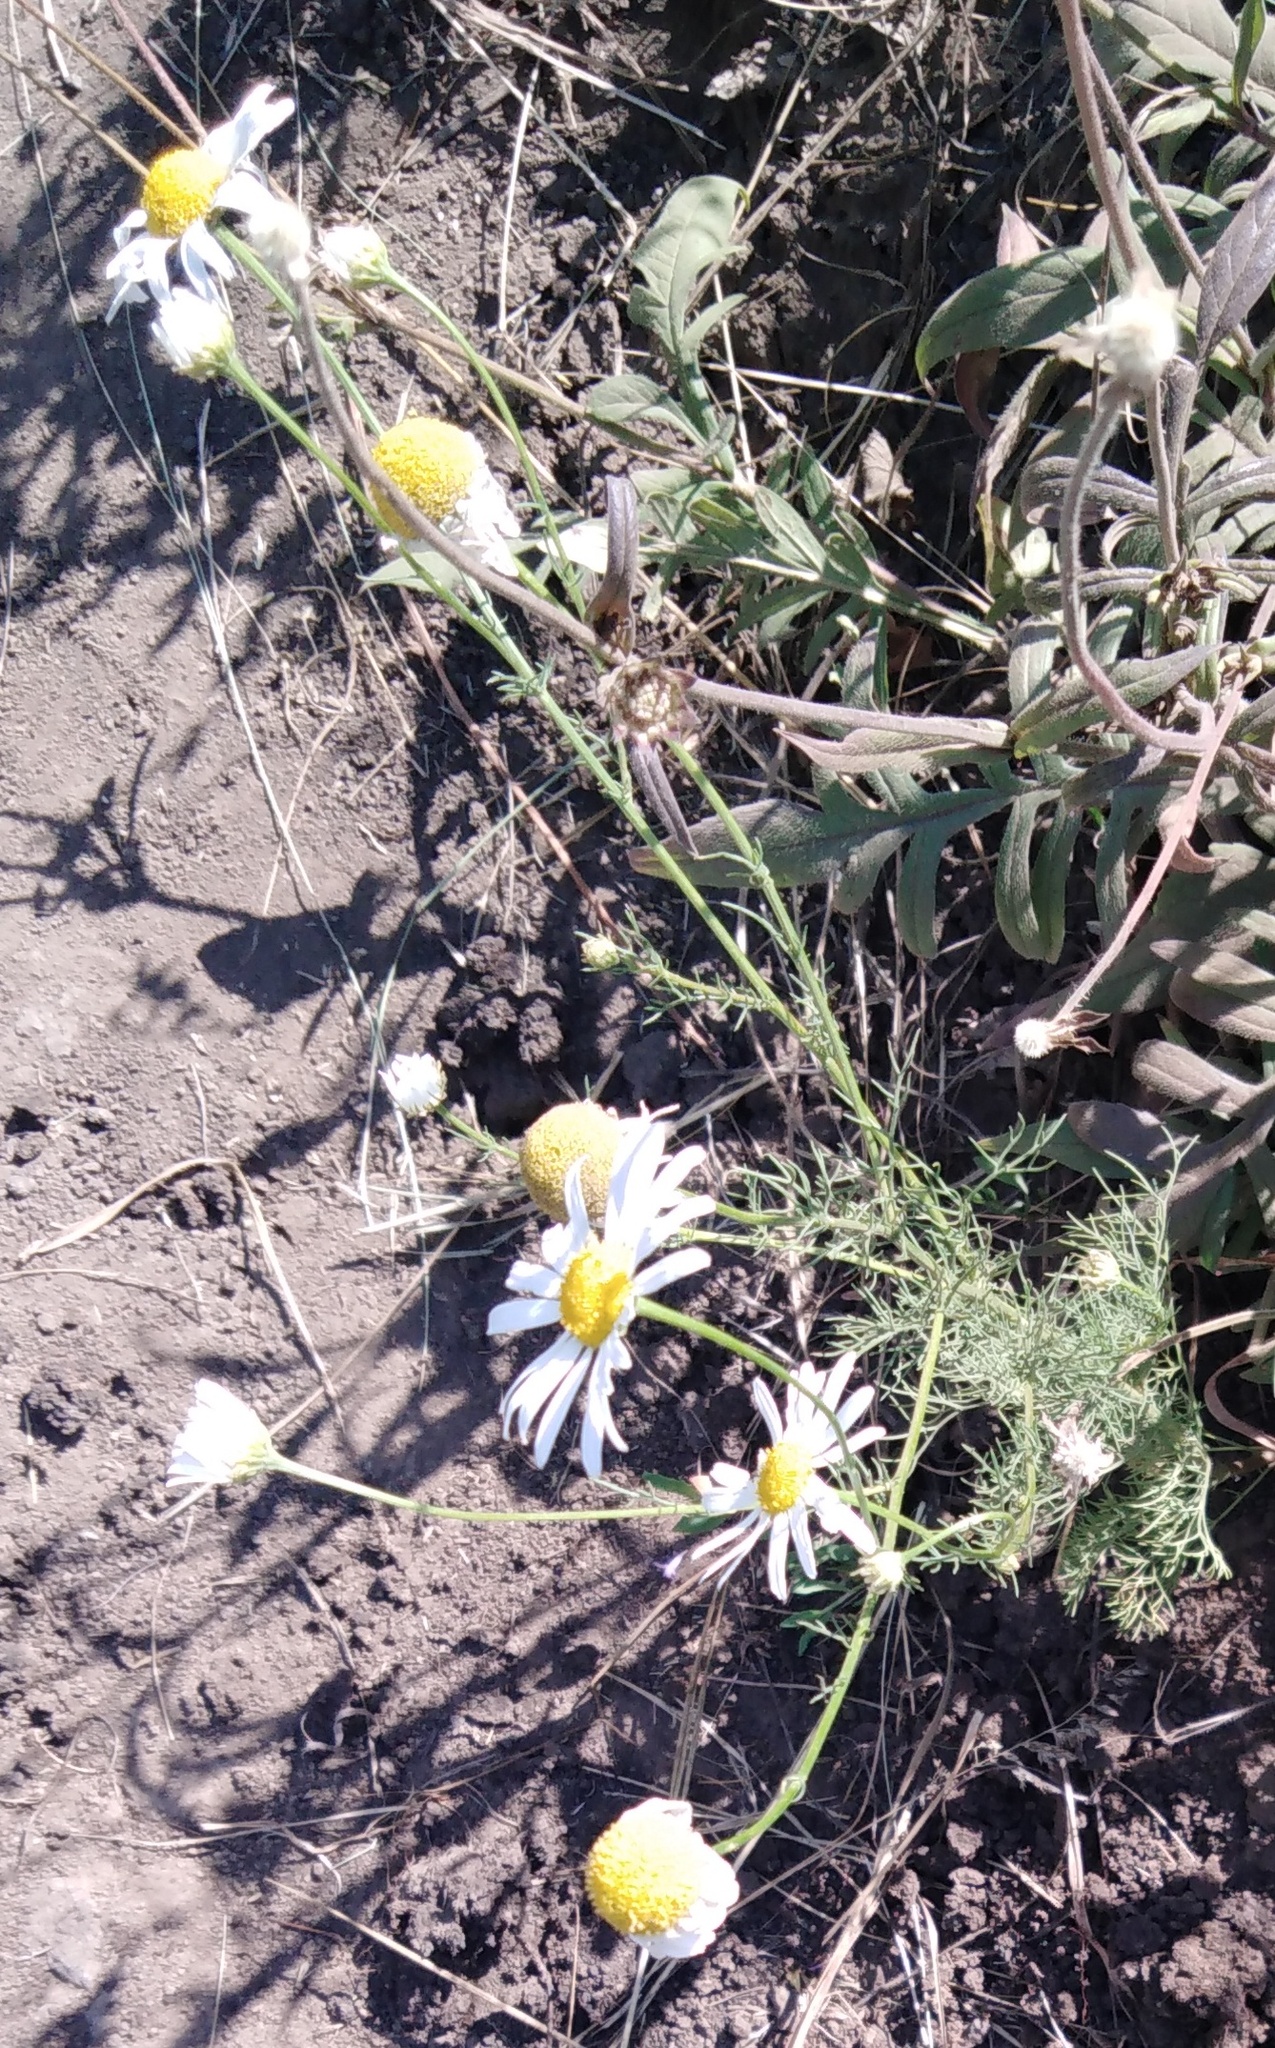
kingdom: Plantae
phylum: Tracheophyta
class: Magnoliopsida
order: Asterales
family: Asteraceae
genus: Tripleurospermum
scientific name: Tripleurospermum inodorum
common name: Scentless mayweed
